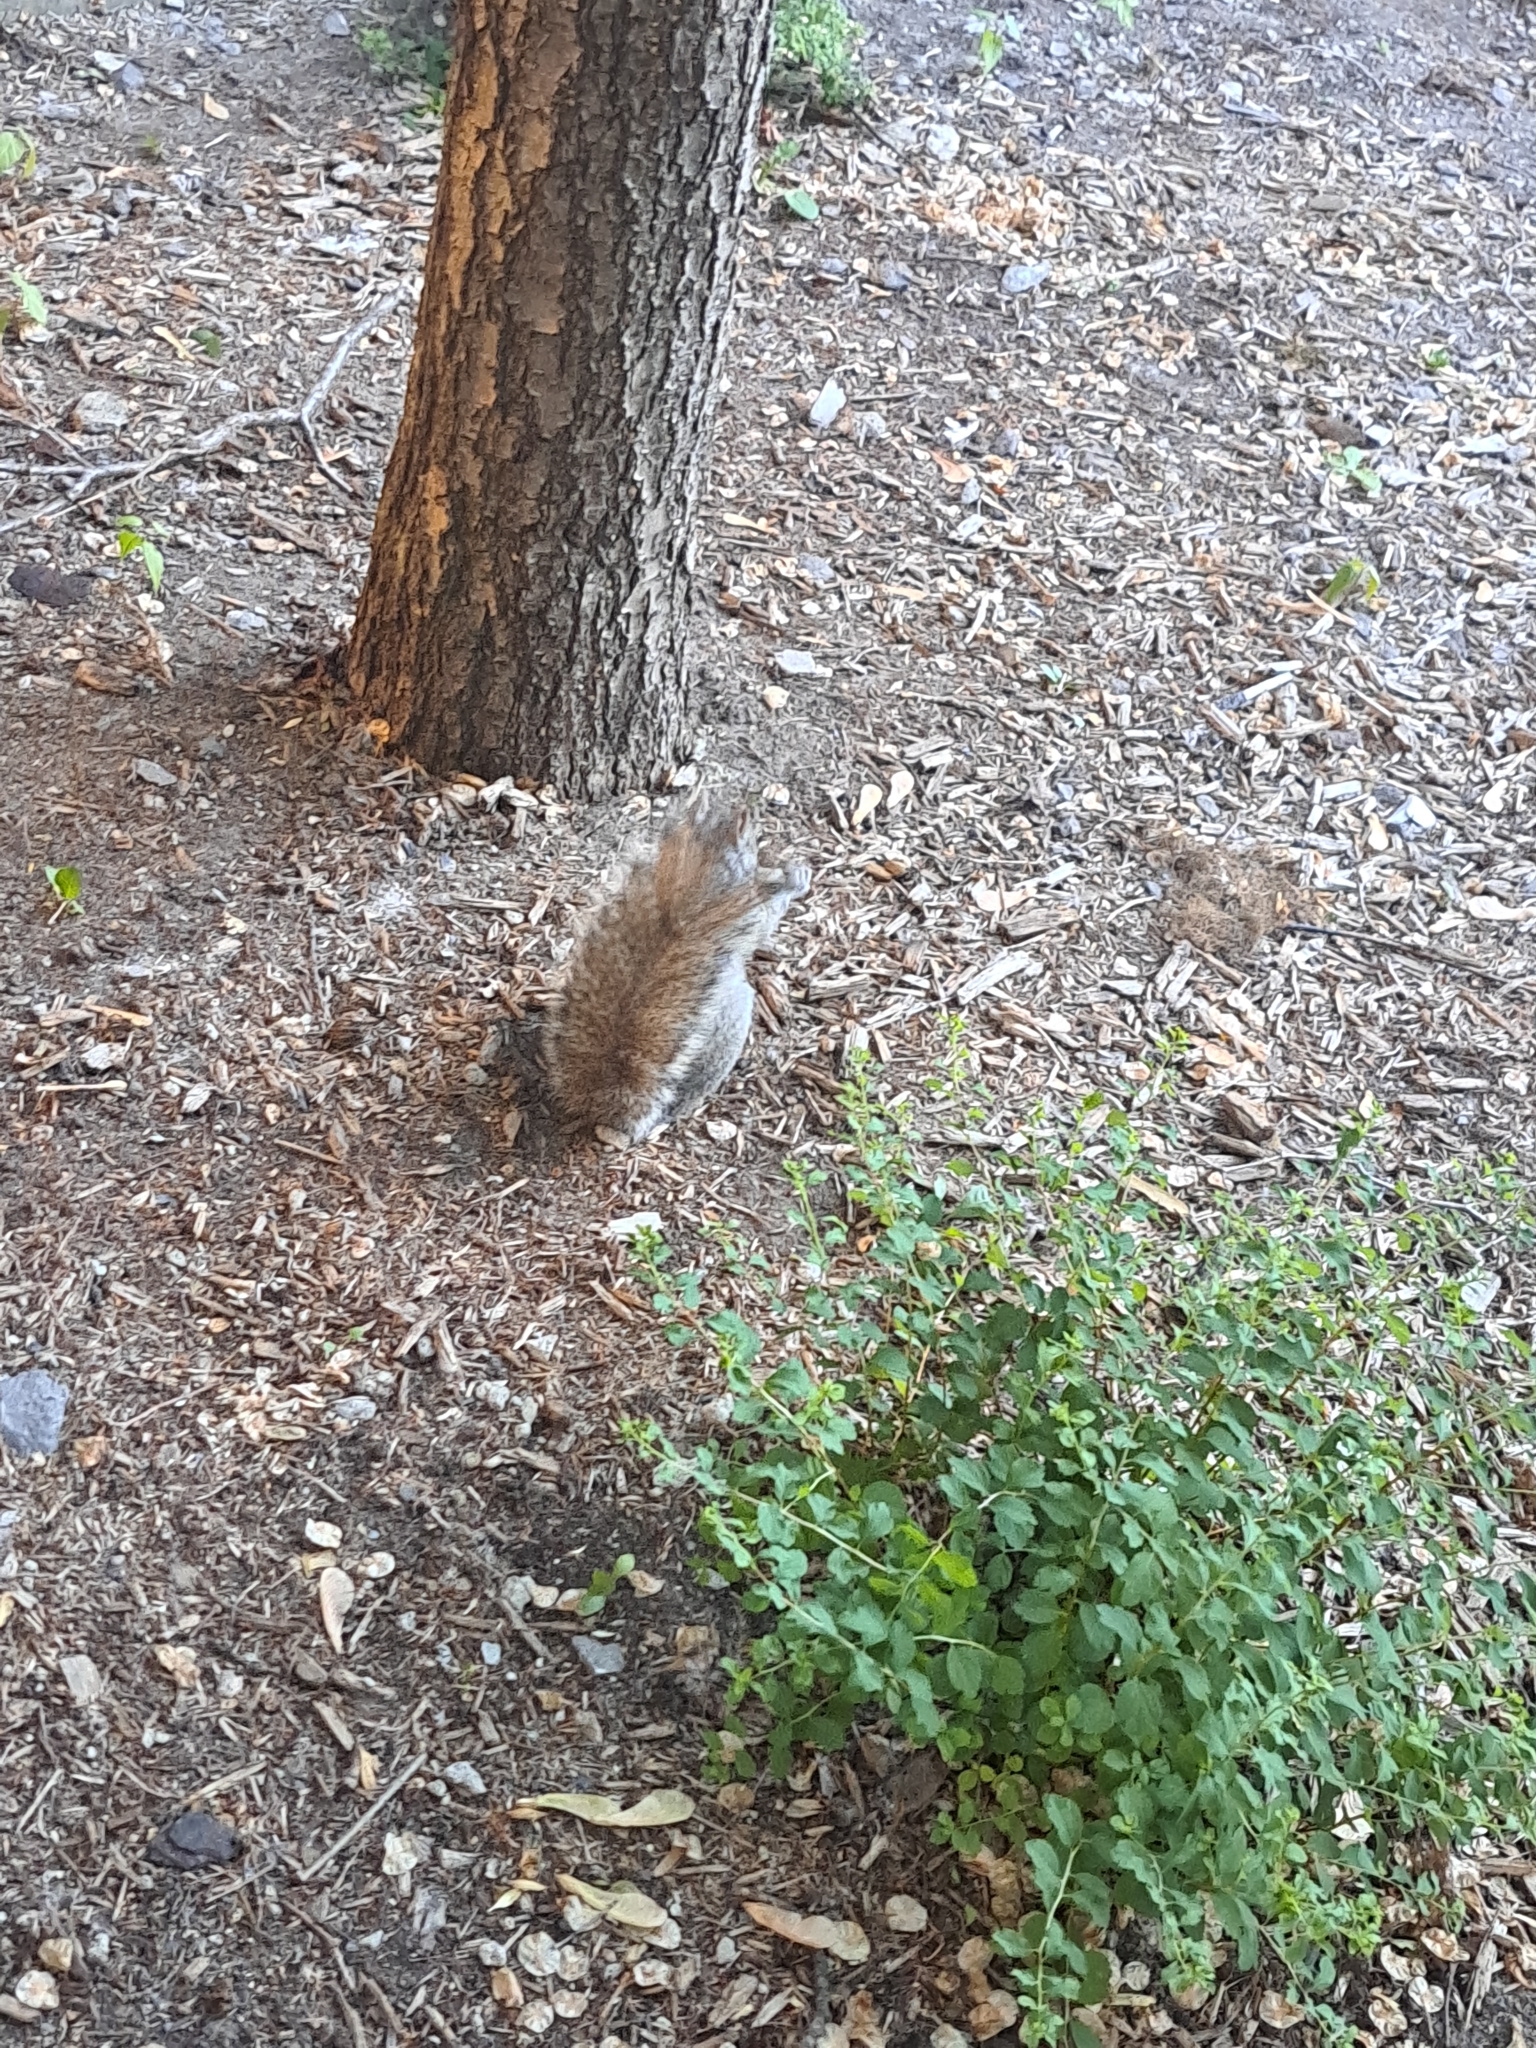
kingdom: Animalia
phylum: Chordata
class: Mammalia
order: Rodentia
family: Sciuridae
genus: Sciurus
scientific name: Sciurus carolinensis
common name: Eastern gray squirrel
